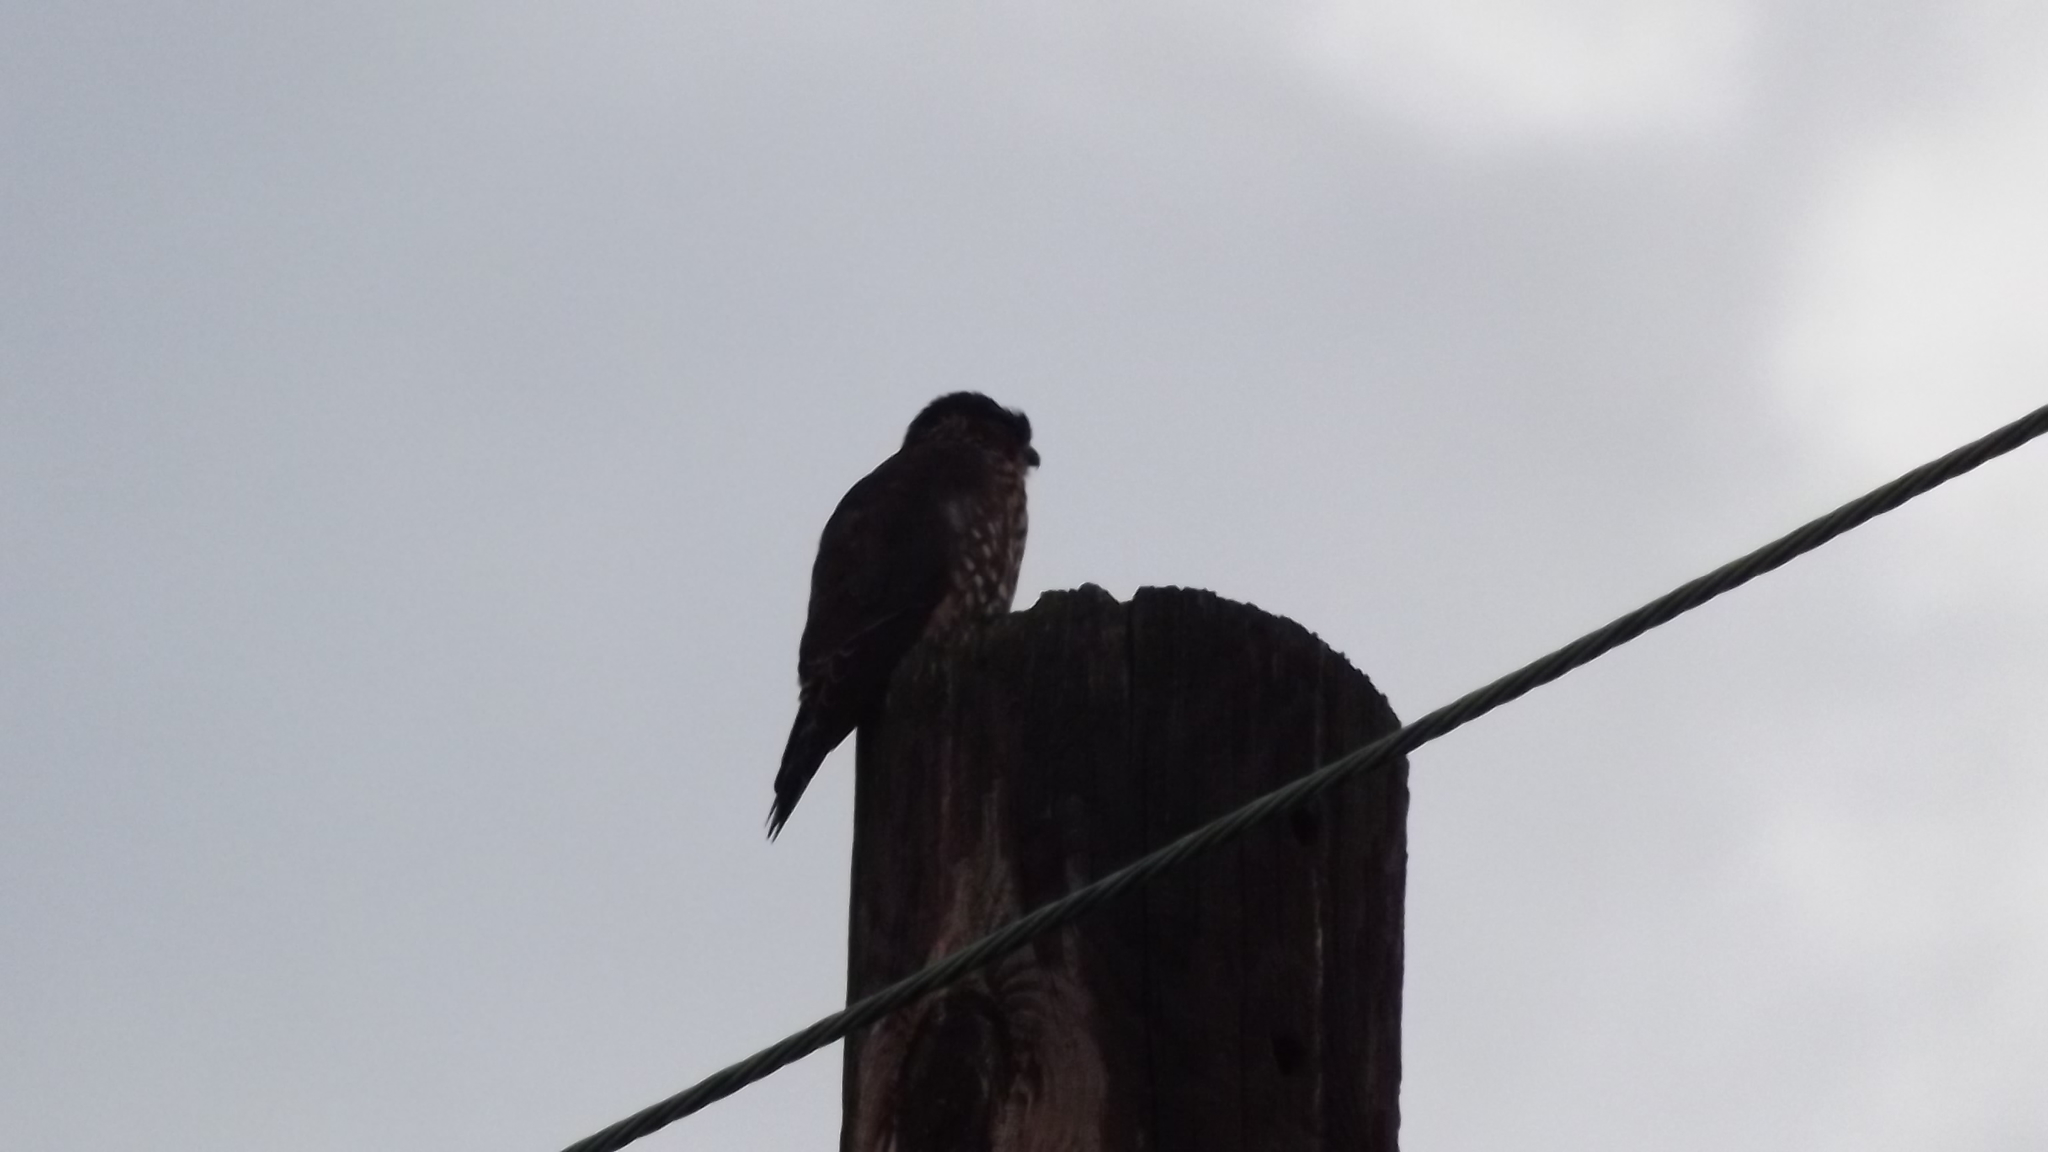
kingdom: Animalia
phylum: Chordata
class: Aves
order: Falconiformes
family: Falconidae
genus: Falco
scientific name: Falco columbarius
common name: Merlin
